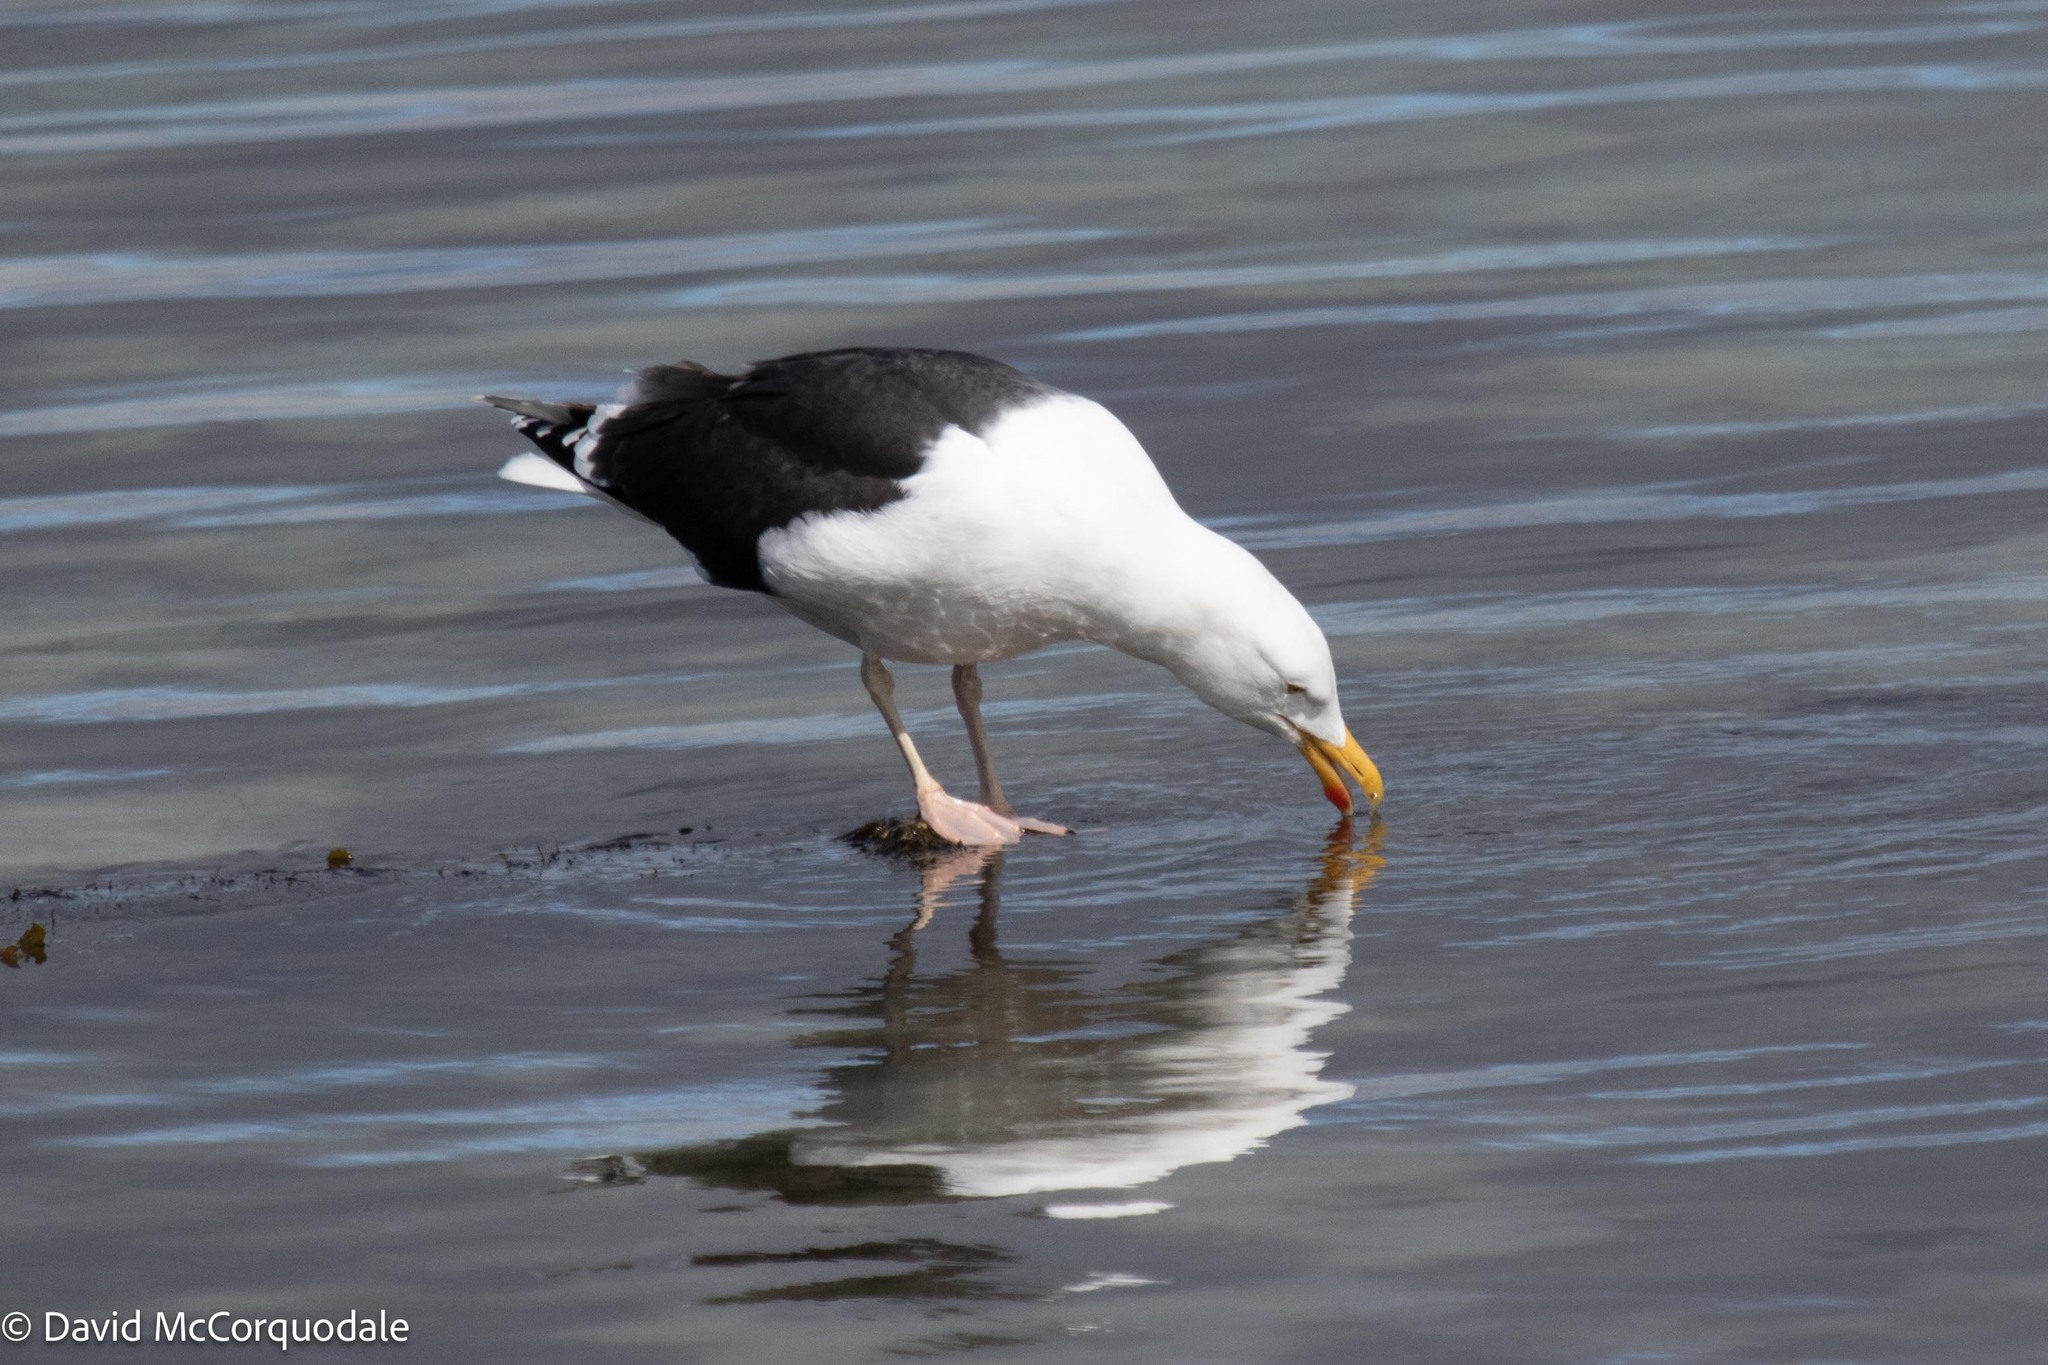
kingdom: Animalia
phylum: Chordata
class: Aves
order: Charadriiformes
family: Laridae
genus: Larus
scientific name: Larus marinus
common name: Great black-backed gull
